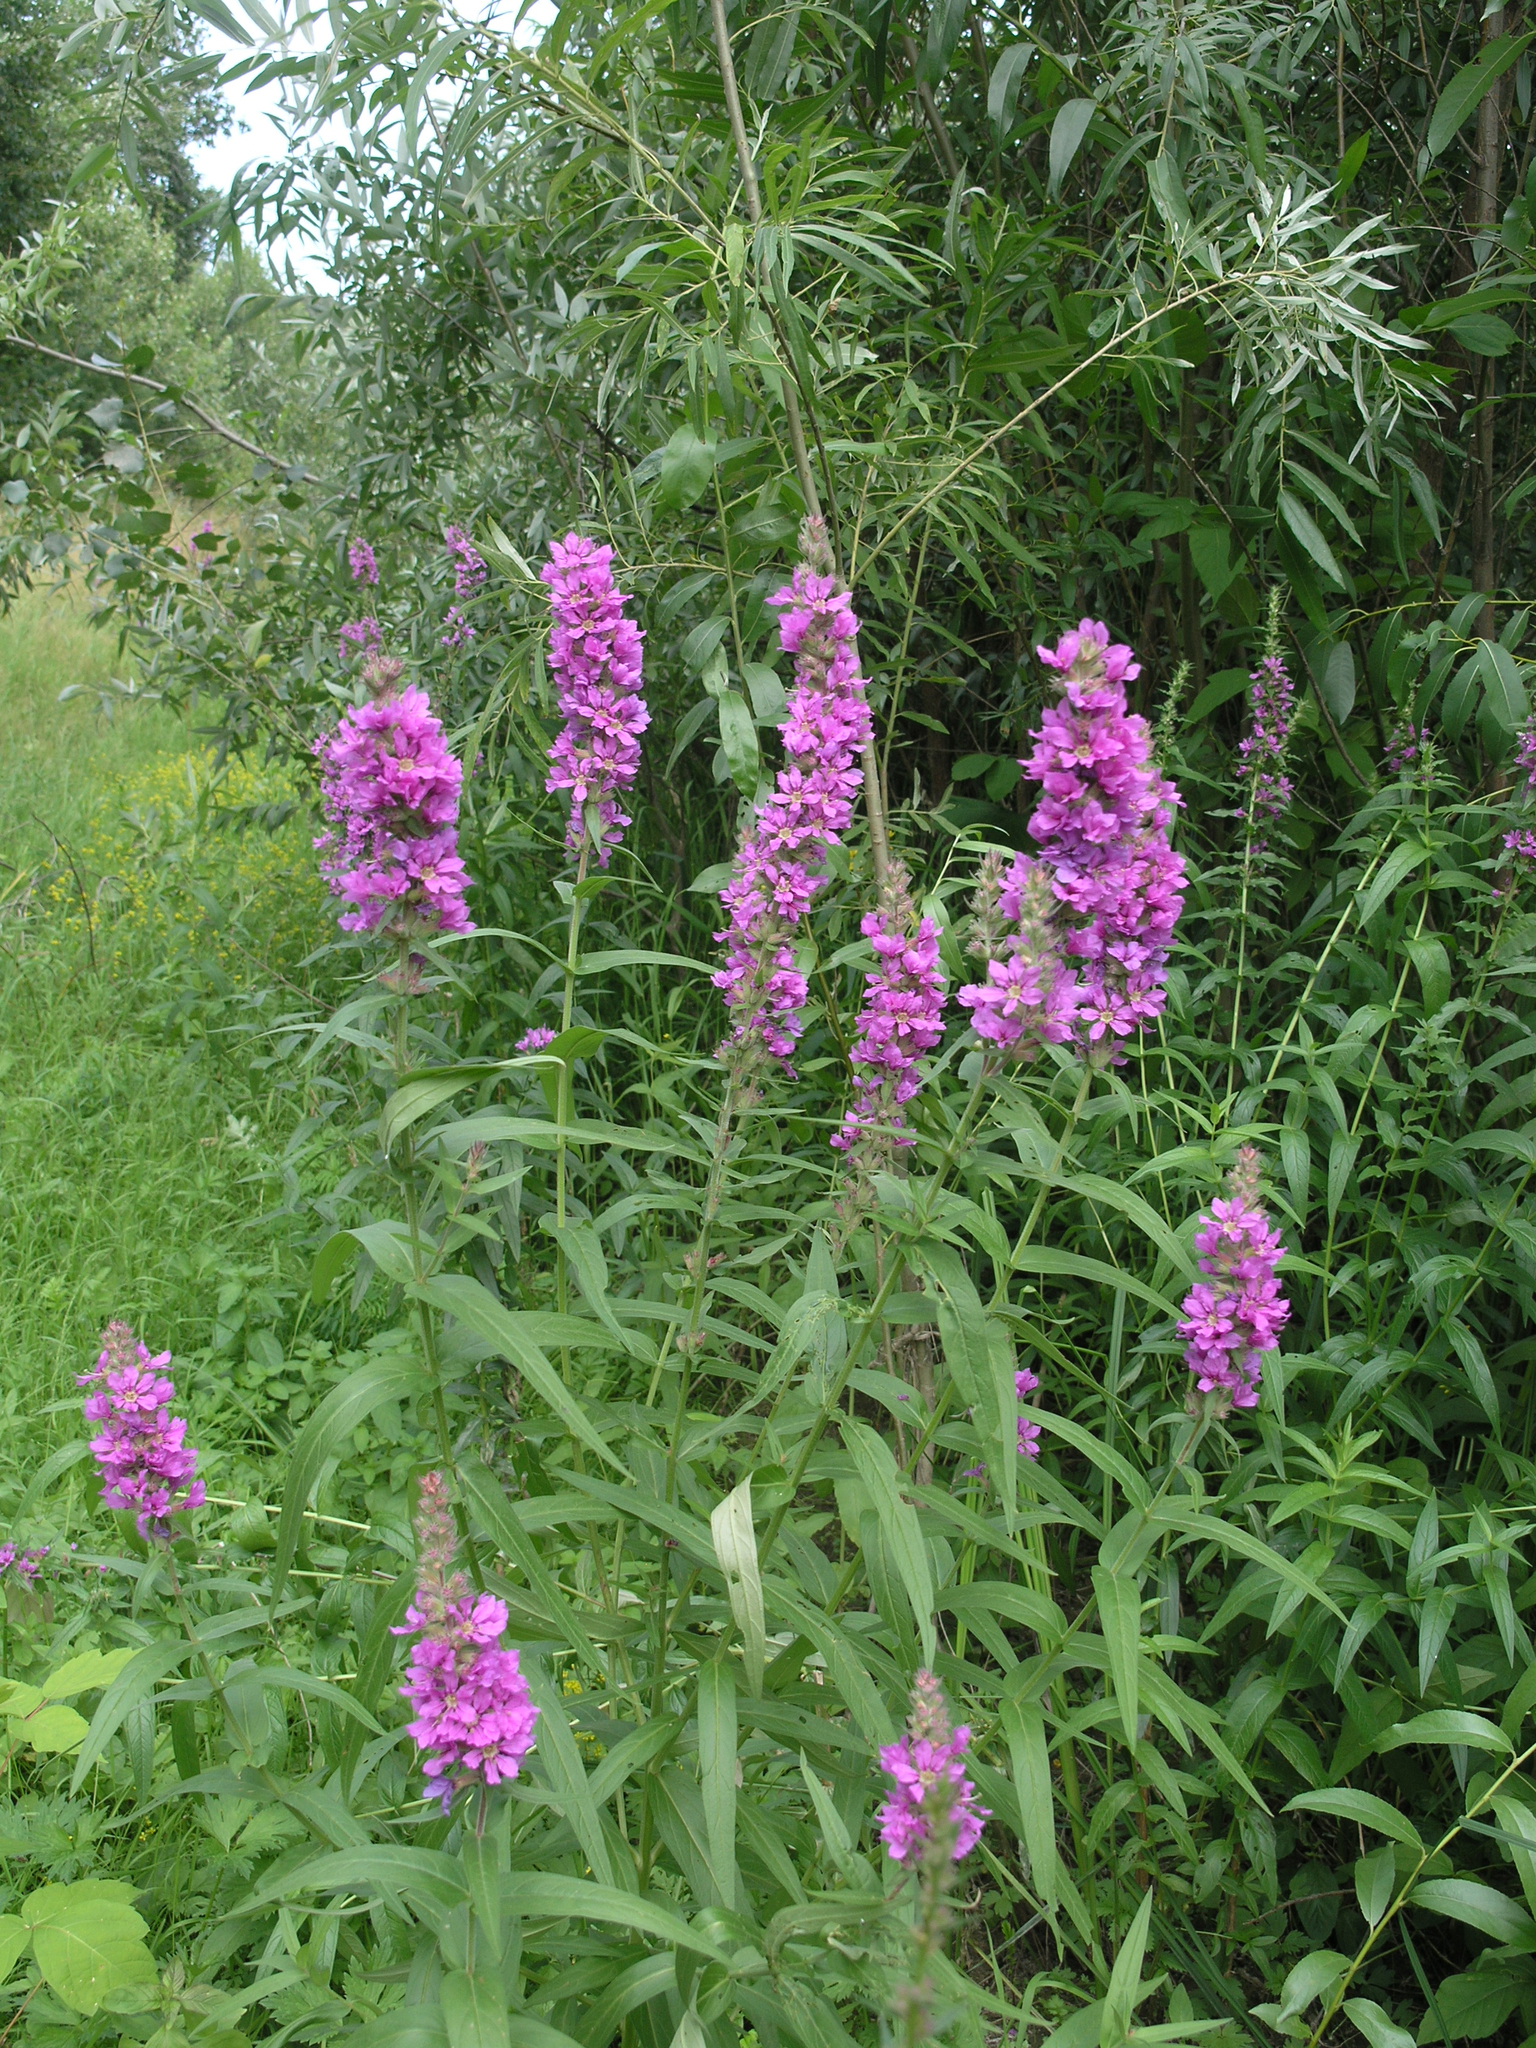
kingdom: Plantae
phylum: Tracheophyta
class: Magnoliopsida
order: Myrtales
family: Lythraceae
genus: Lythrum
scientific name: Lythrum salicaria
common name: Purple loosestrife
